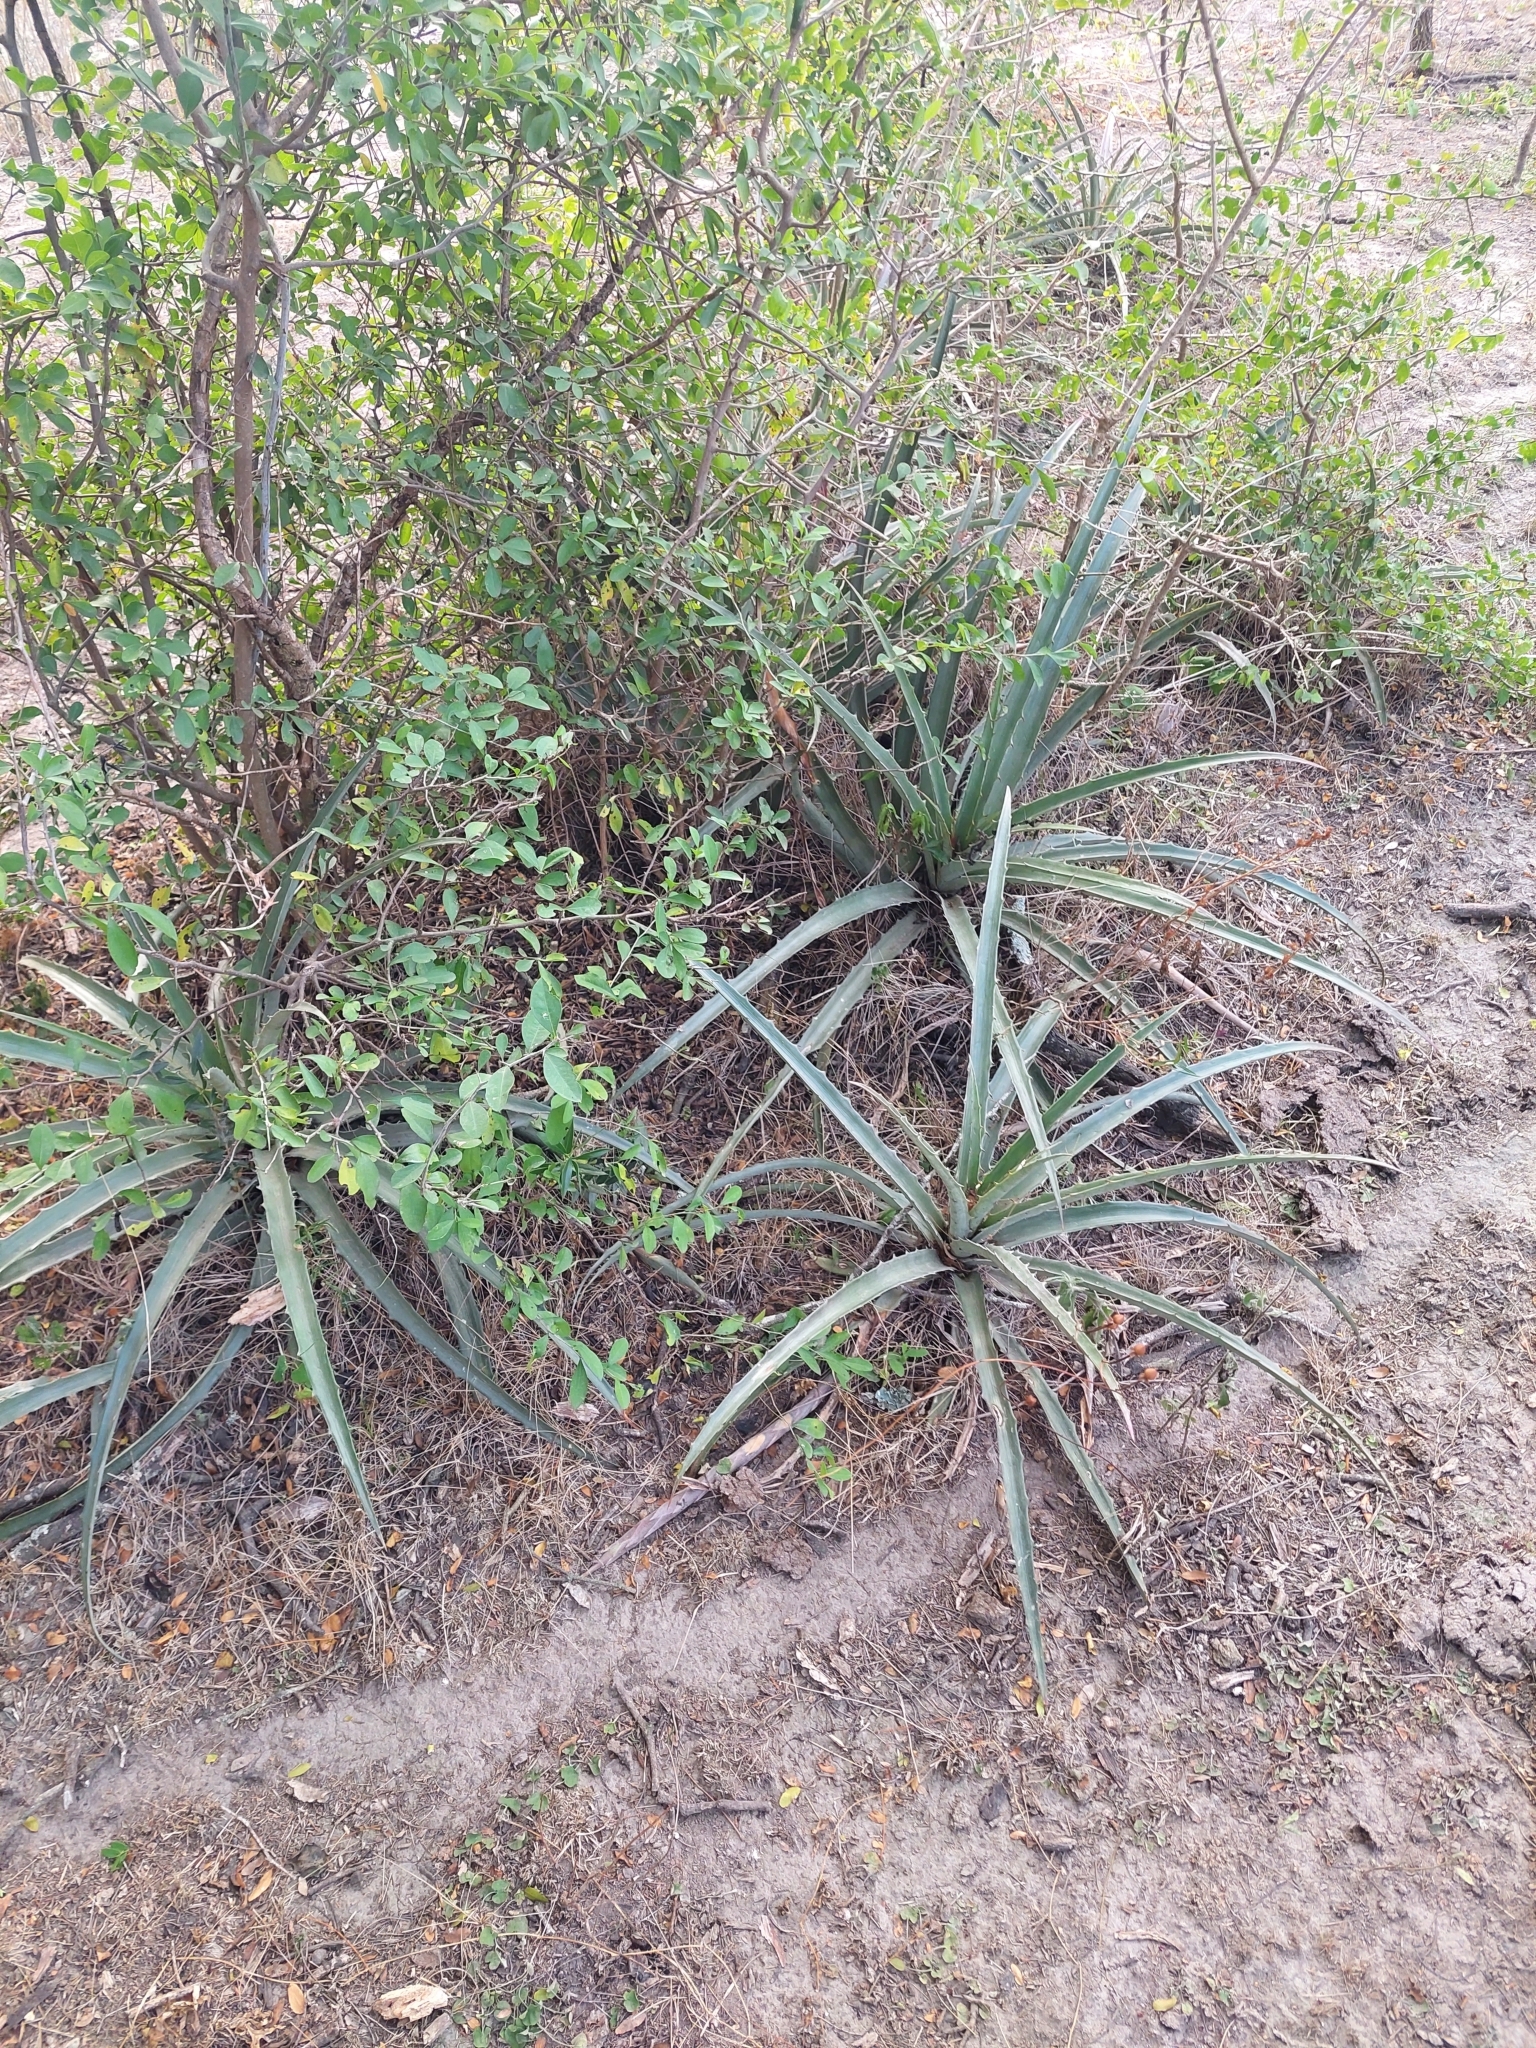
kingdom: Plantae
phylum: Tracheophyta
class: Liliopsida
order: Poales
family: Bromeliaceae
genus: Bromelia
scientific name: Bromelia serra
